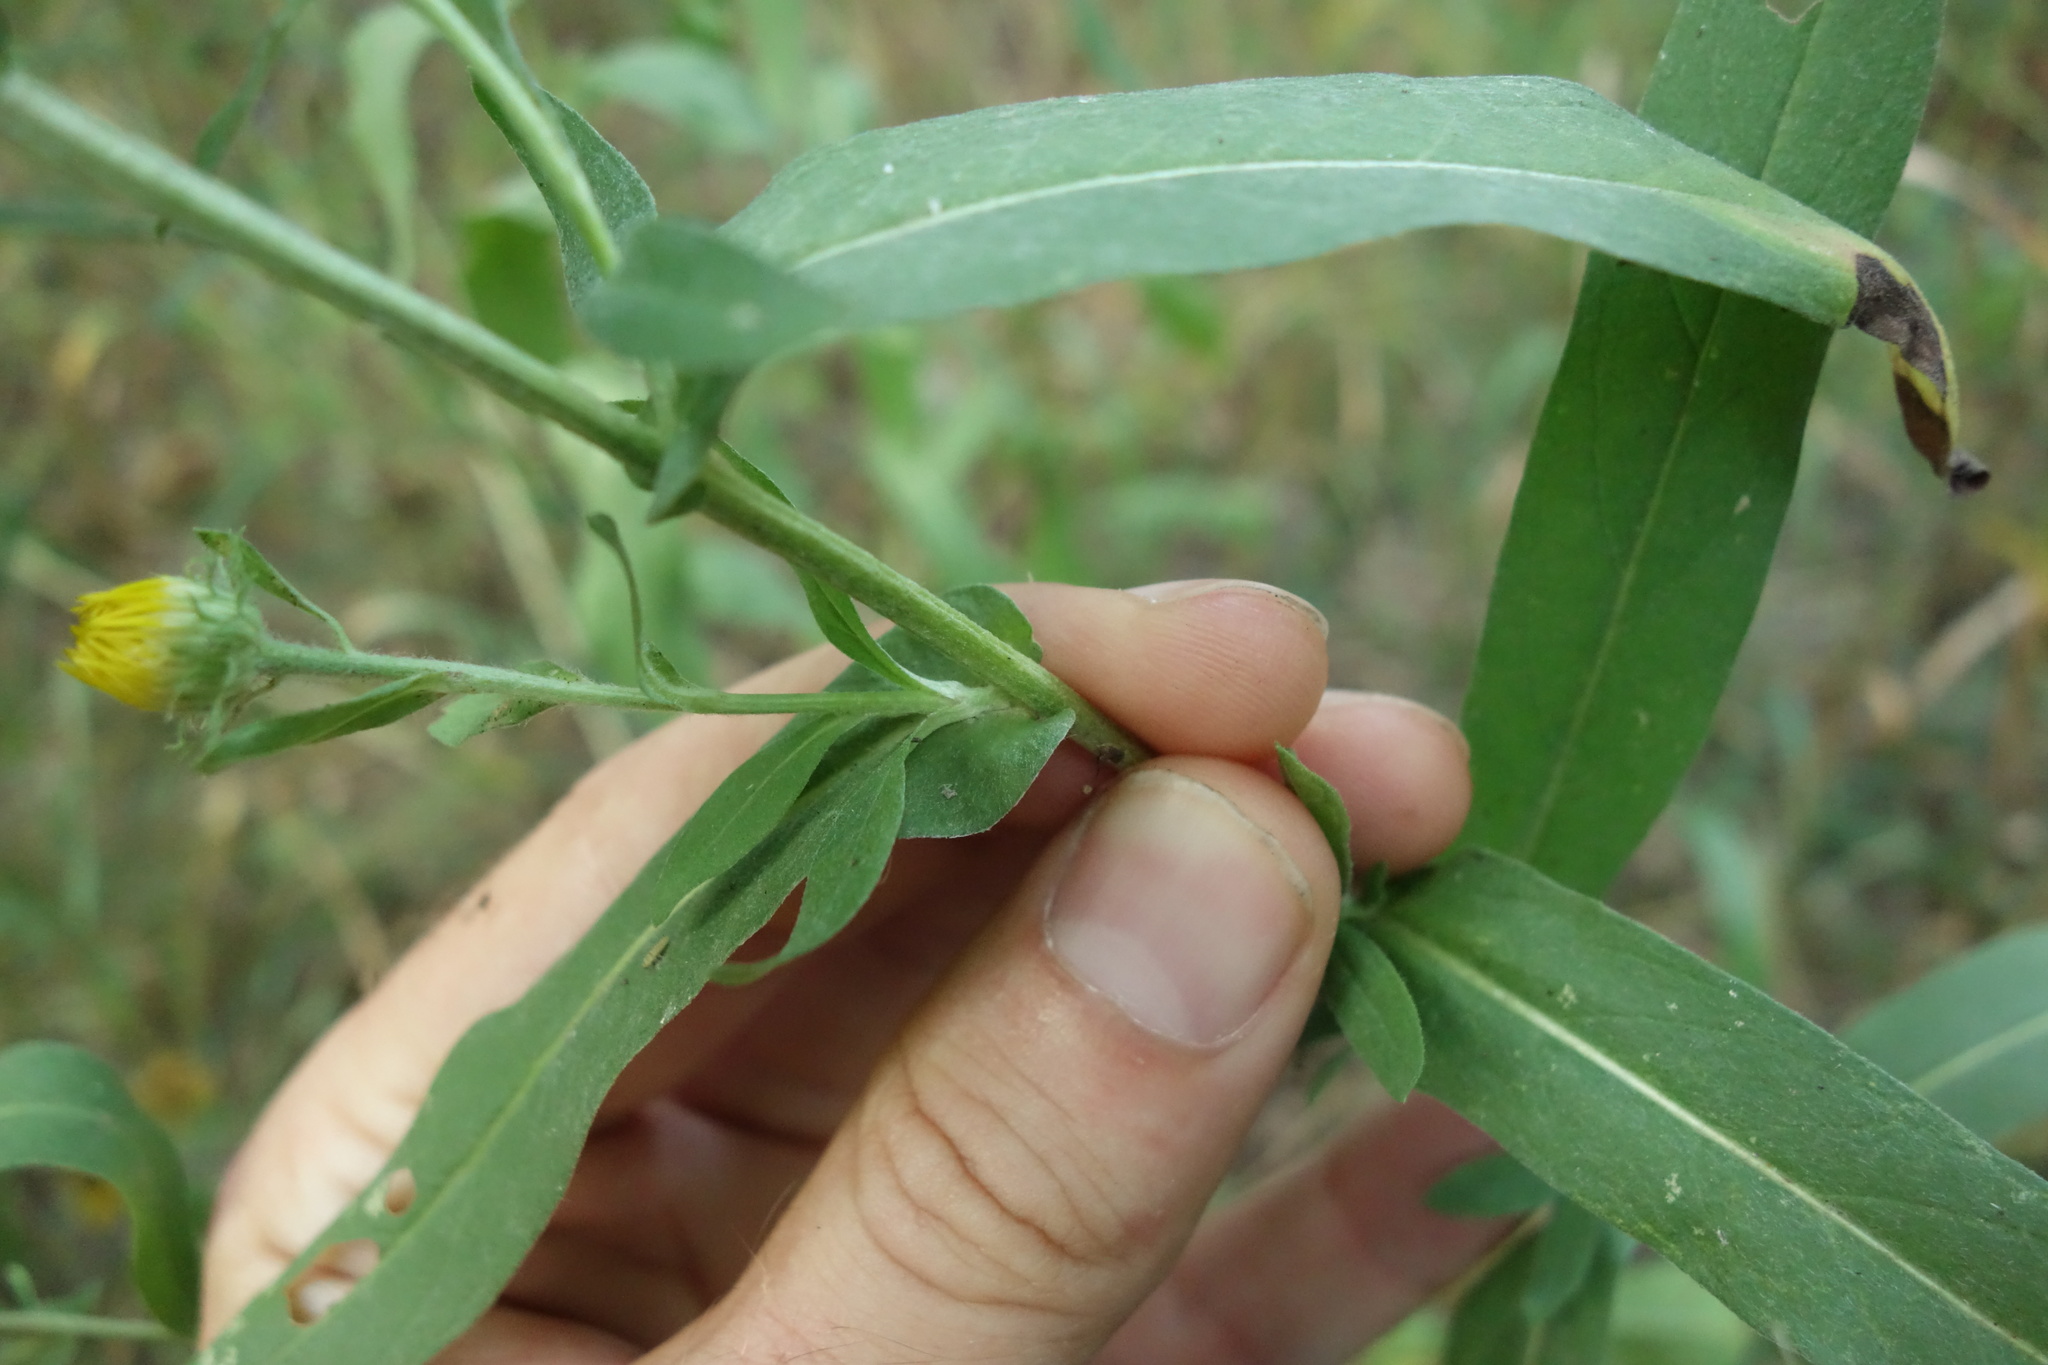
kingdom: Plantae
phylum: Tracheophyta
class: Magnoliopsida
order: Asterales
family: Asteraceae
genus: Pentanema
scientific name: Pentanema britannicum
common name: British elecampane
